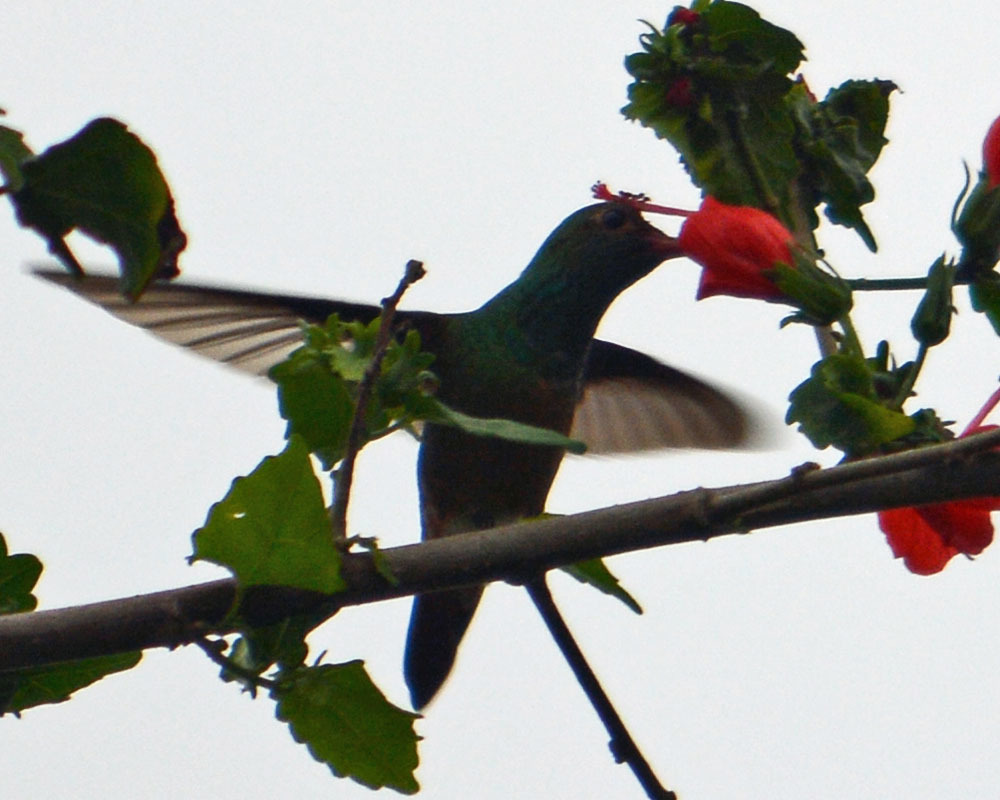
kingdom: Animalia
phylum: Chordata
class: Aves
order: Apodiformes
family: Trochilidae
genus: Amazilia
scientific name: Amazilia yucatanensis
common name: Buff-bellied hummingbird
